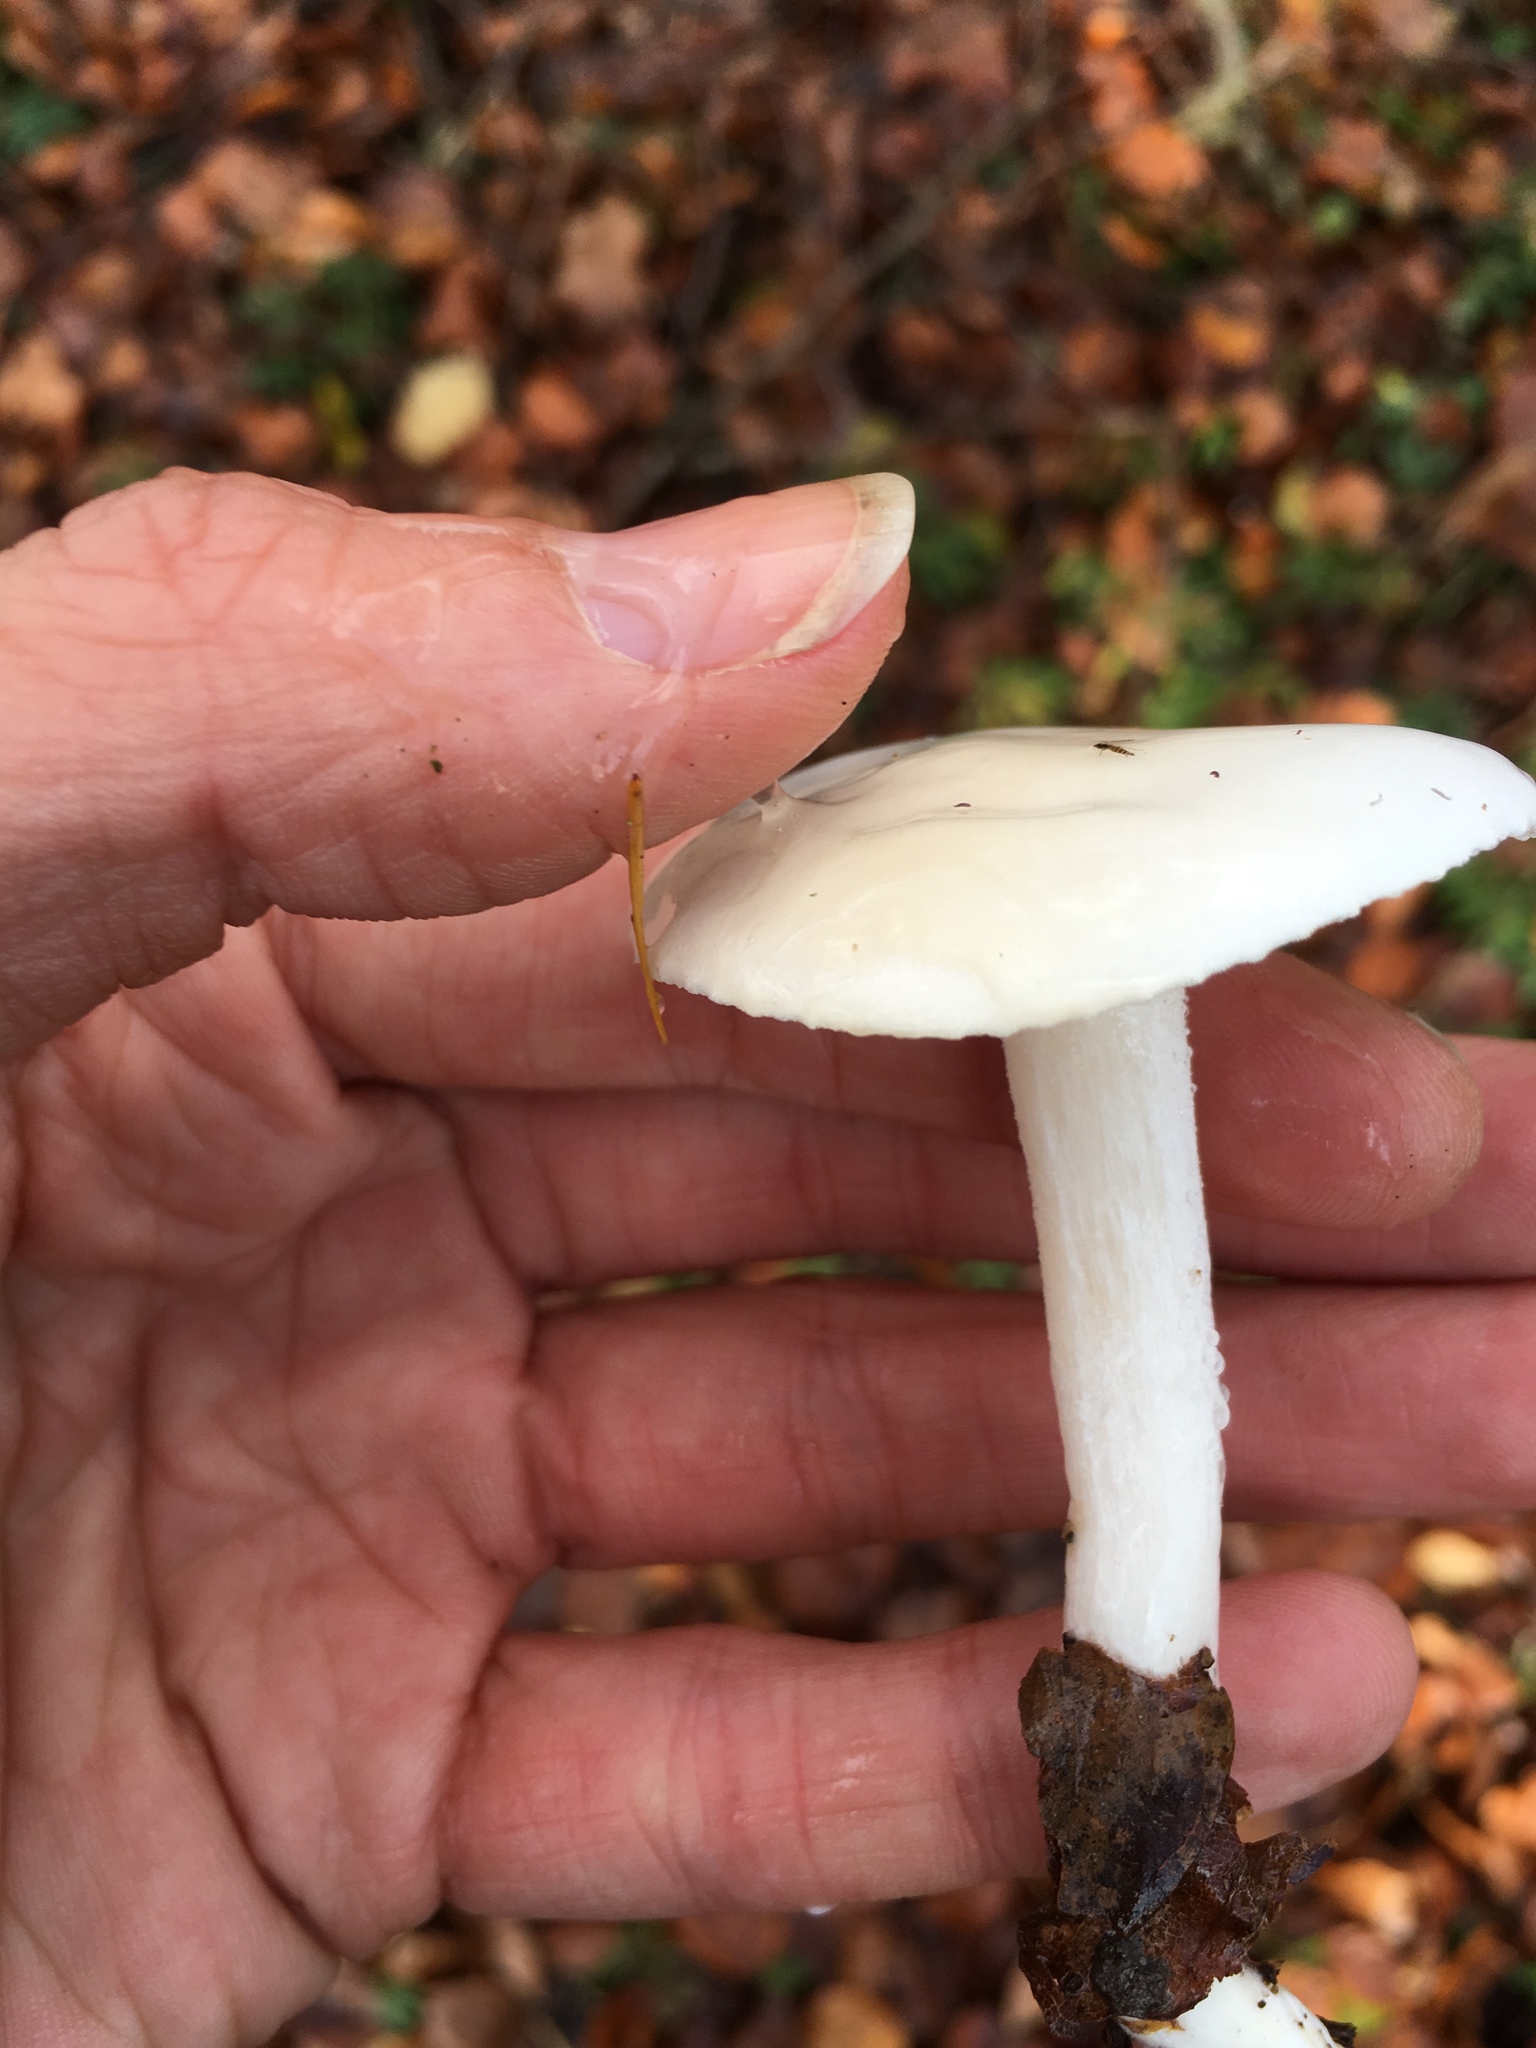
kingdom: Fungi
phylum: Basidiomycota
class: Agaricomycetes
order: Agaricales
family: Hygrophoraceae
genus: Hygrophorus
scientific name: Hygrophorus eburneus
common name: Ivory wax-cap
